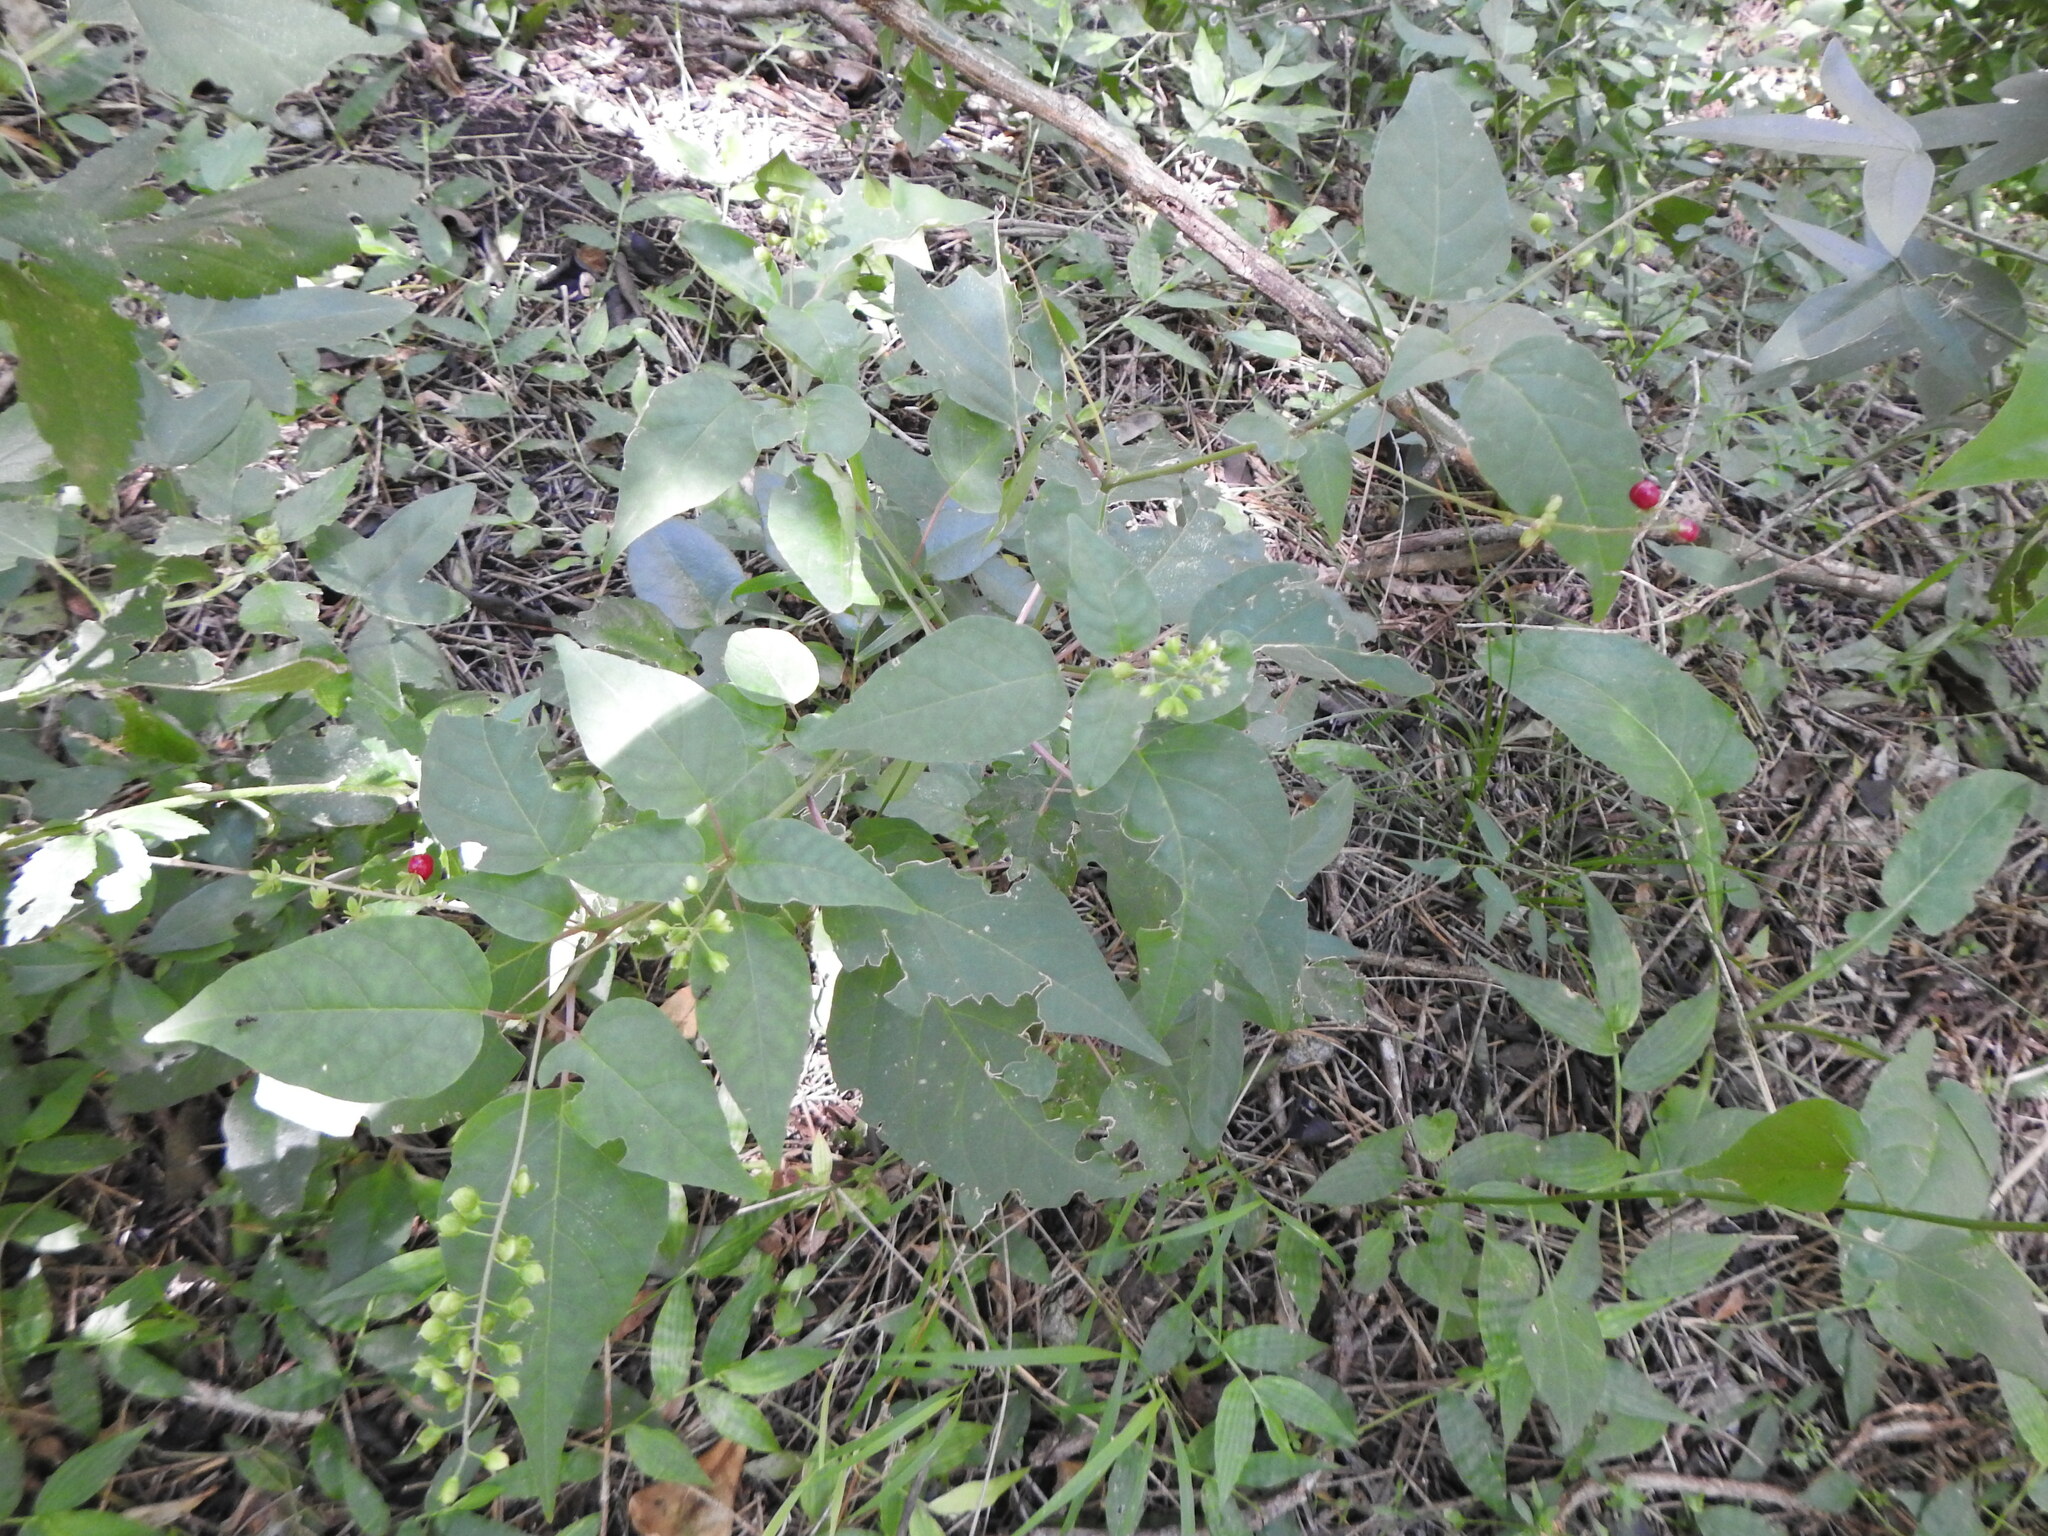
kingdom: Plantae
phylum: Tracheophyta
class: Magnoliopsida
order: Caryophyllales
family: Phytolaccaceae
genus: Rivina
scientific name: Rivina humilis
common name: Rougeplant
